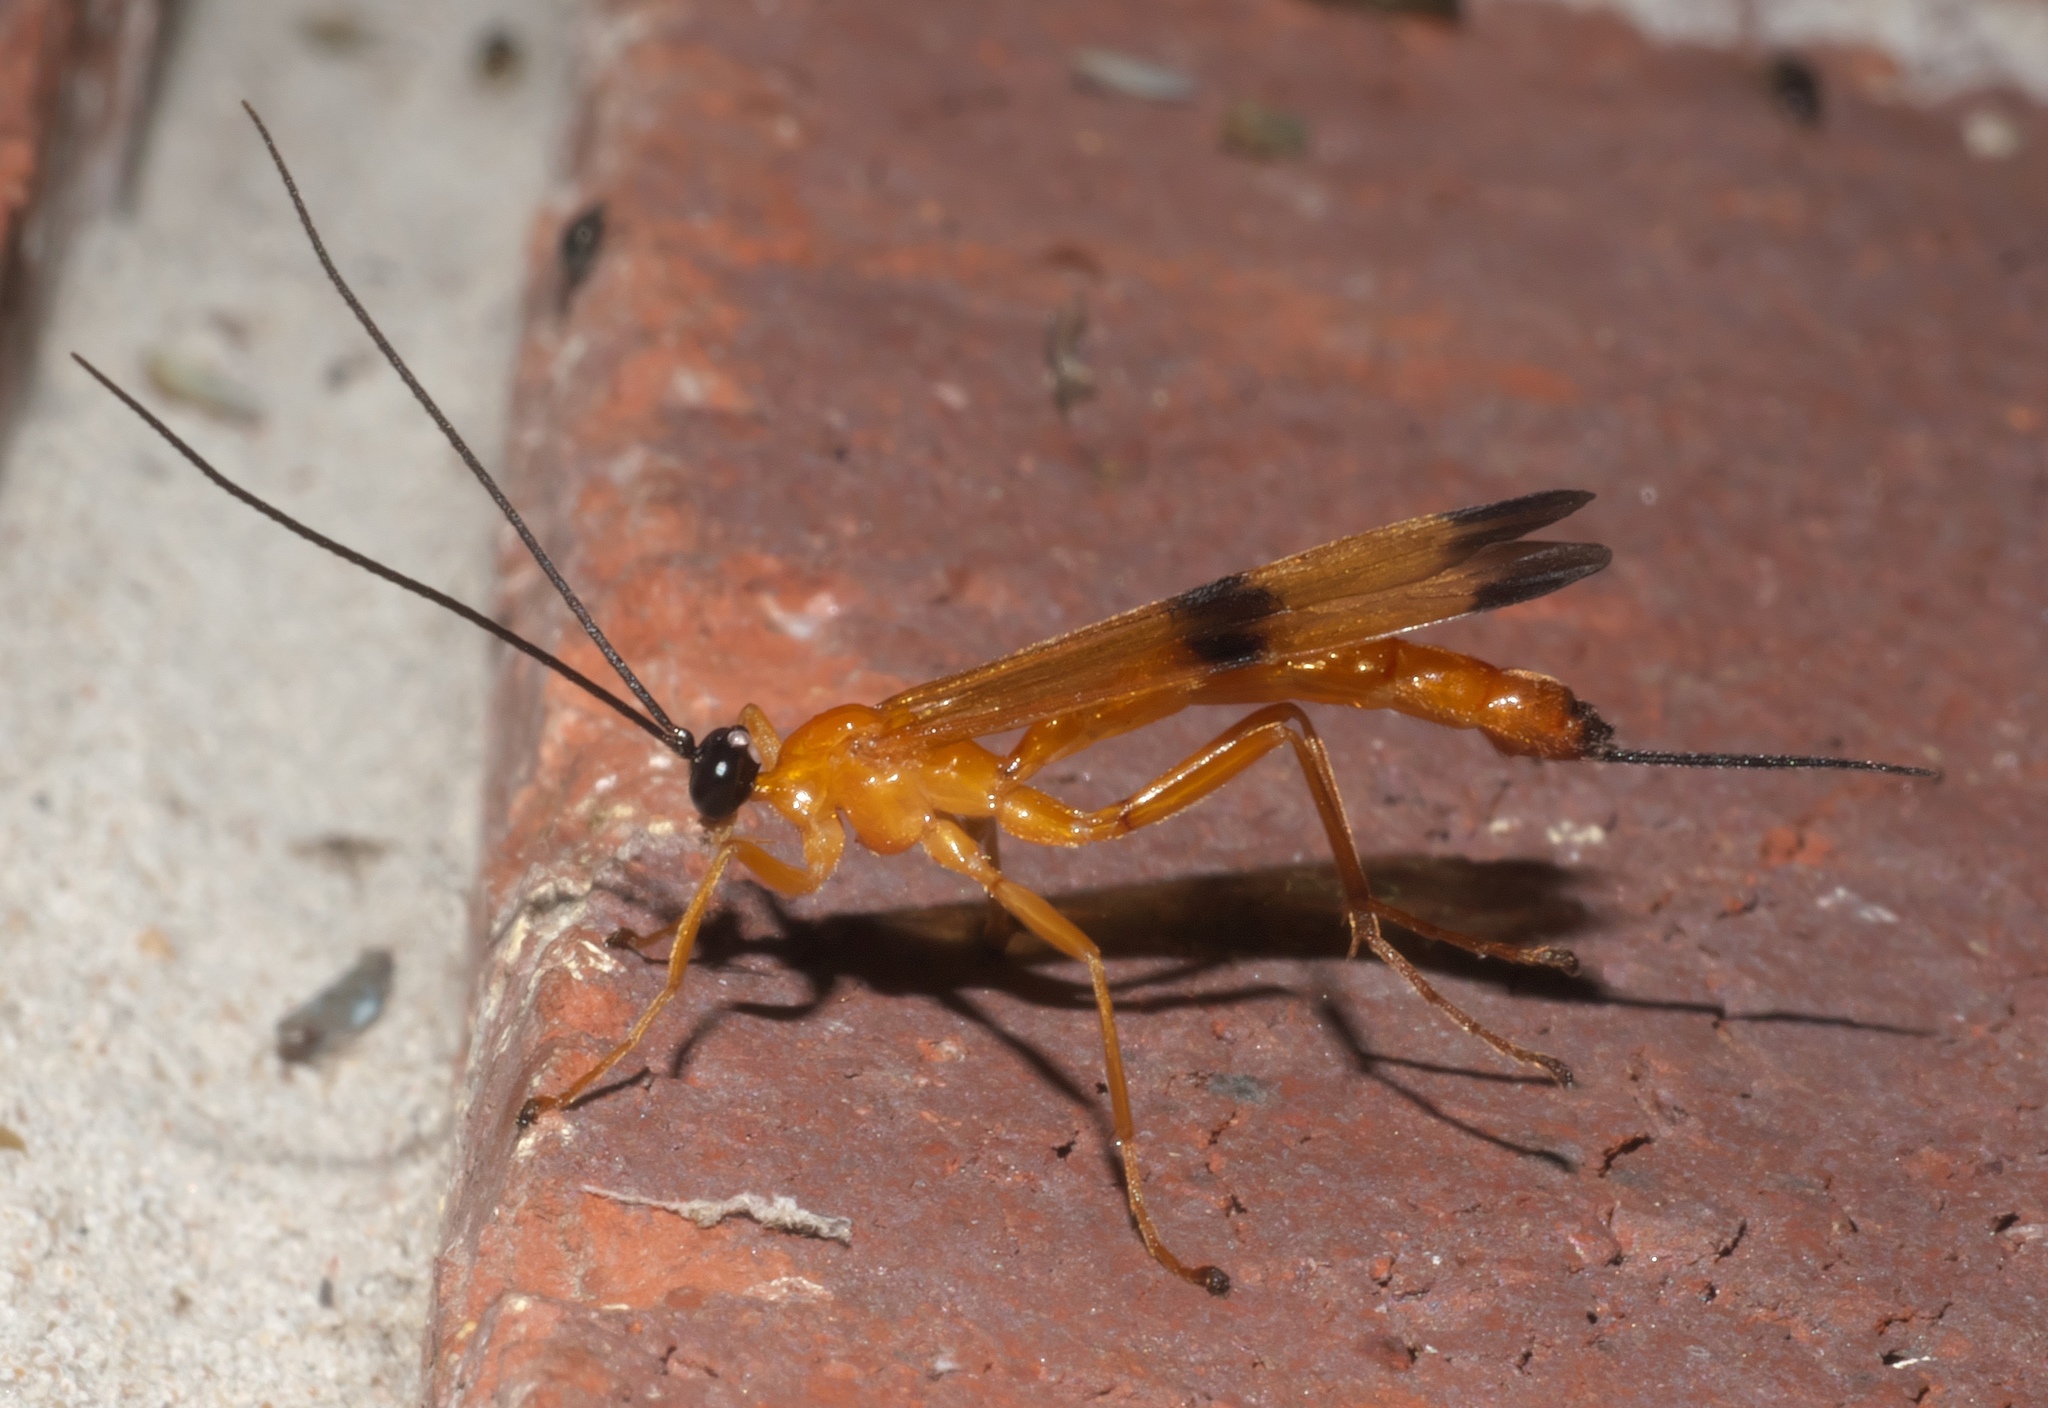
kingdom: Animalia
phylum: Arthropoda
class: Insecta
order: Hymenoptera
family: Ichneumonidae
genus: Acrotaphus
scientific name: Acrotaphus wiltii
